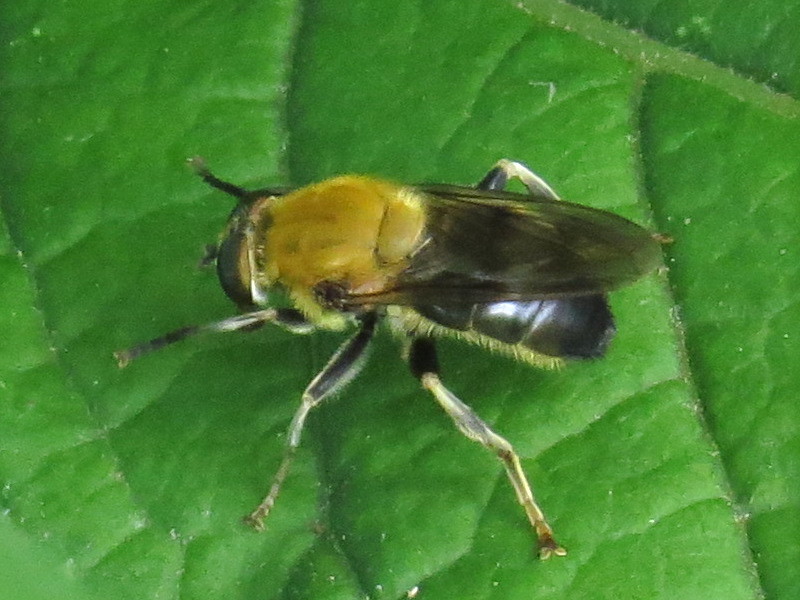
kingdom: Animalia
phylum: Arthropoda
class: Insecta
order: Diptera
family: Syrphidae
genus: Pterallastes
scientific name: Pterallastes thoracicus
